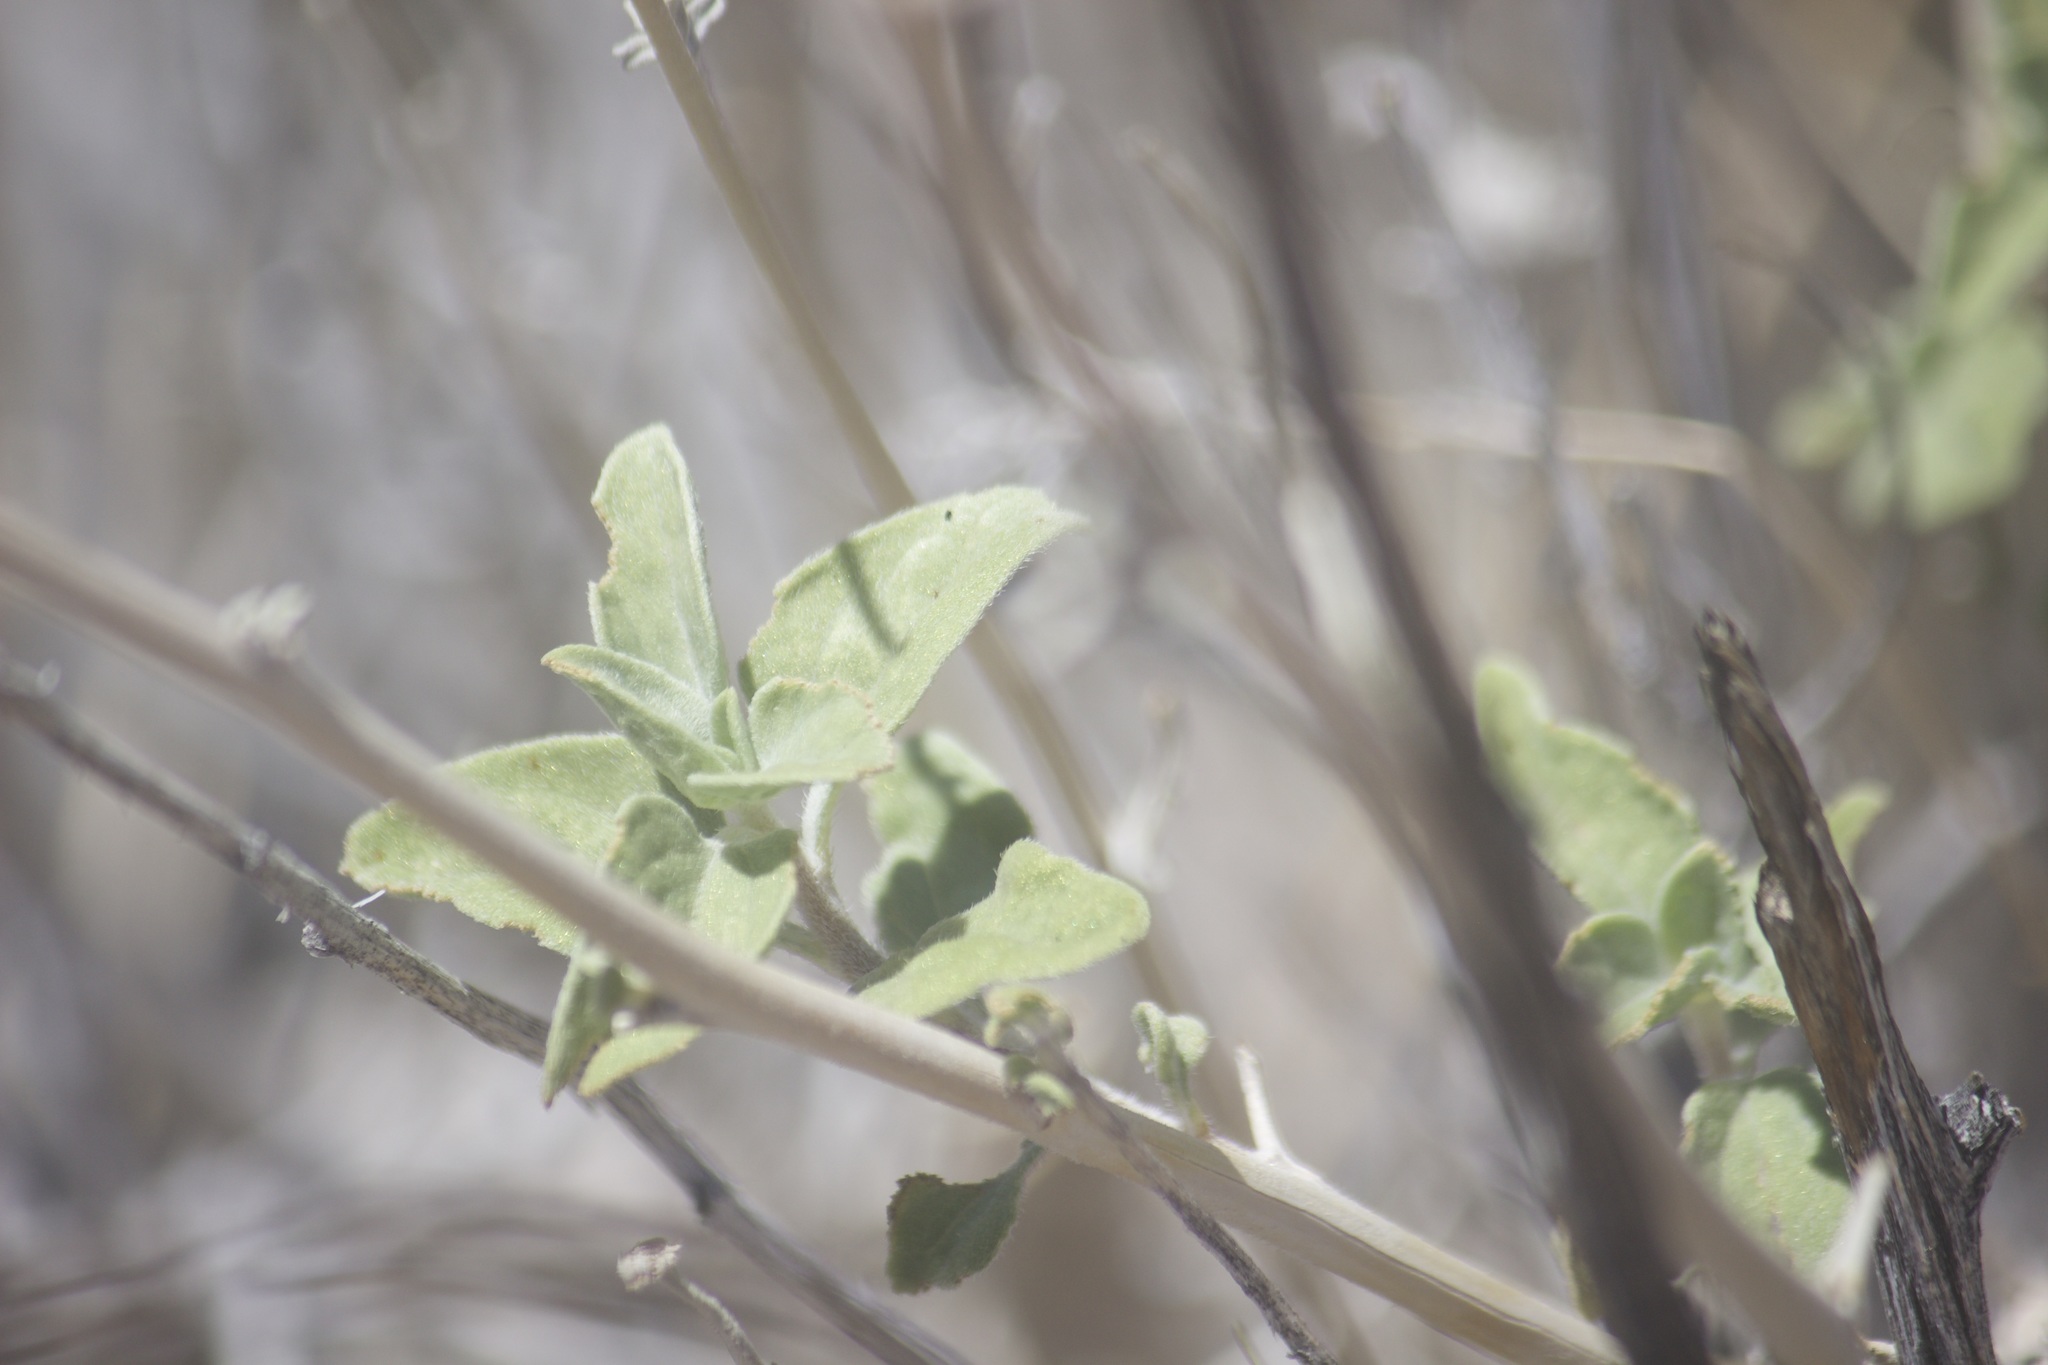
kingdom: Plantae
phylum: Tracheophyta
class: Magnoliopsida
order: Asterales
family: Asteraceae
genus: Encelia
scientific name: Encelia actoni
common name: Acton encelia
